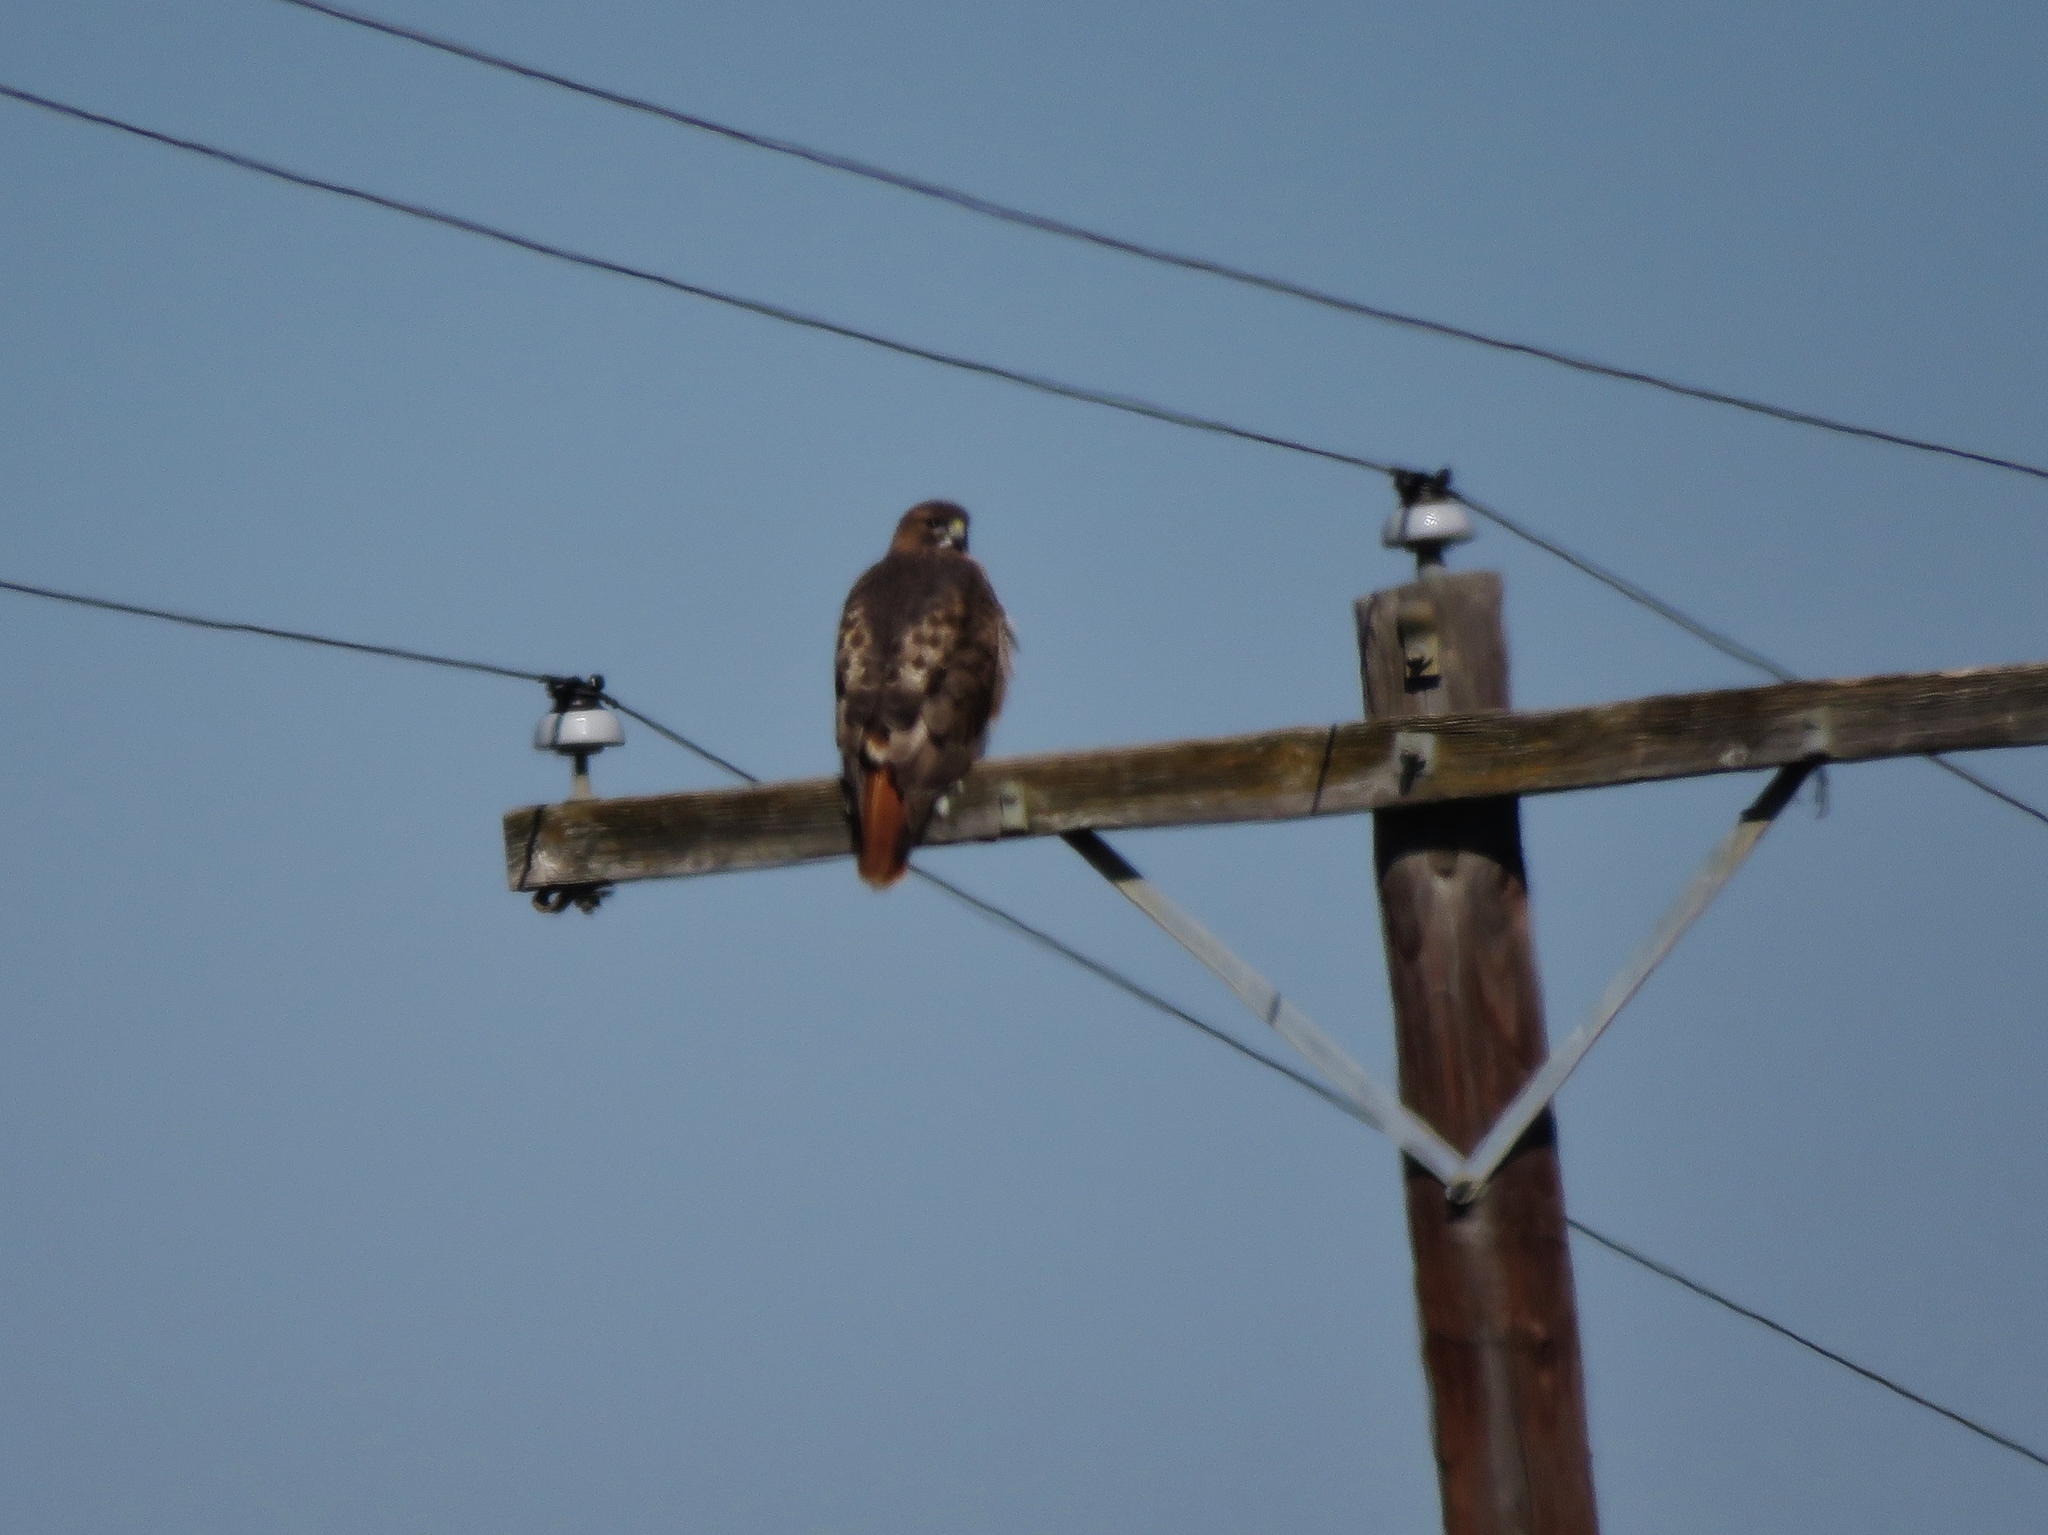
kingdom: Animalia
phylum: Chordata
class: Aves
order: Accipitriformes
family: Accipitridae
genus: Buteo
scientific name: Buteo jamaicensis
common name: Red-tailed hawk
